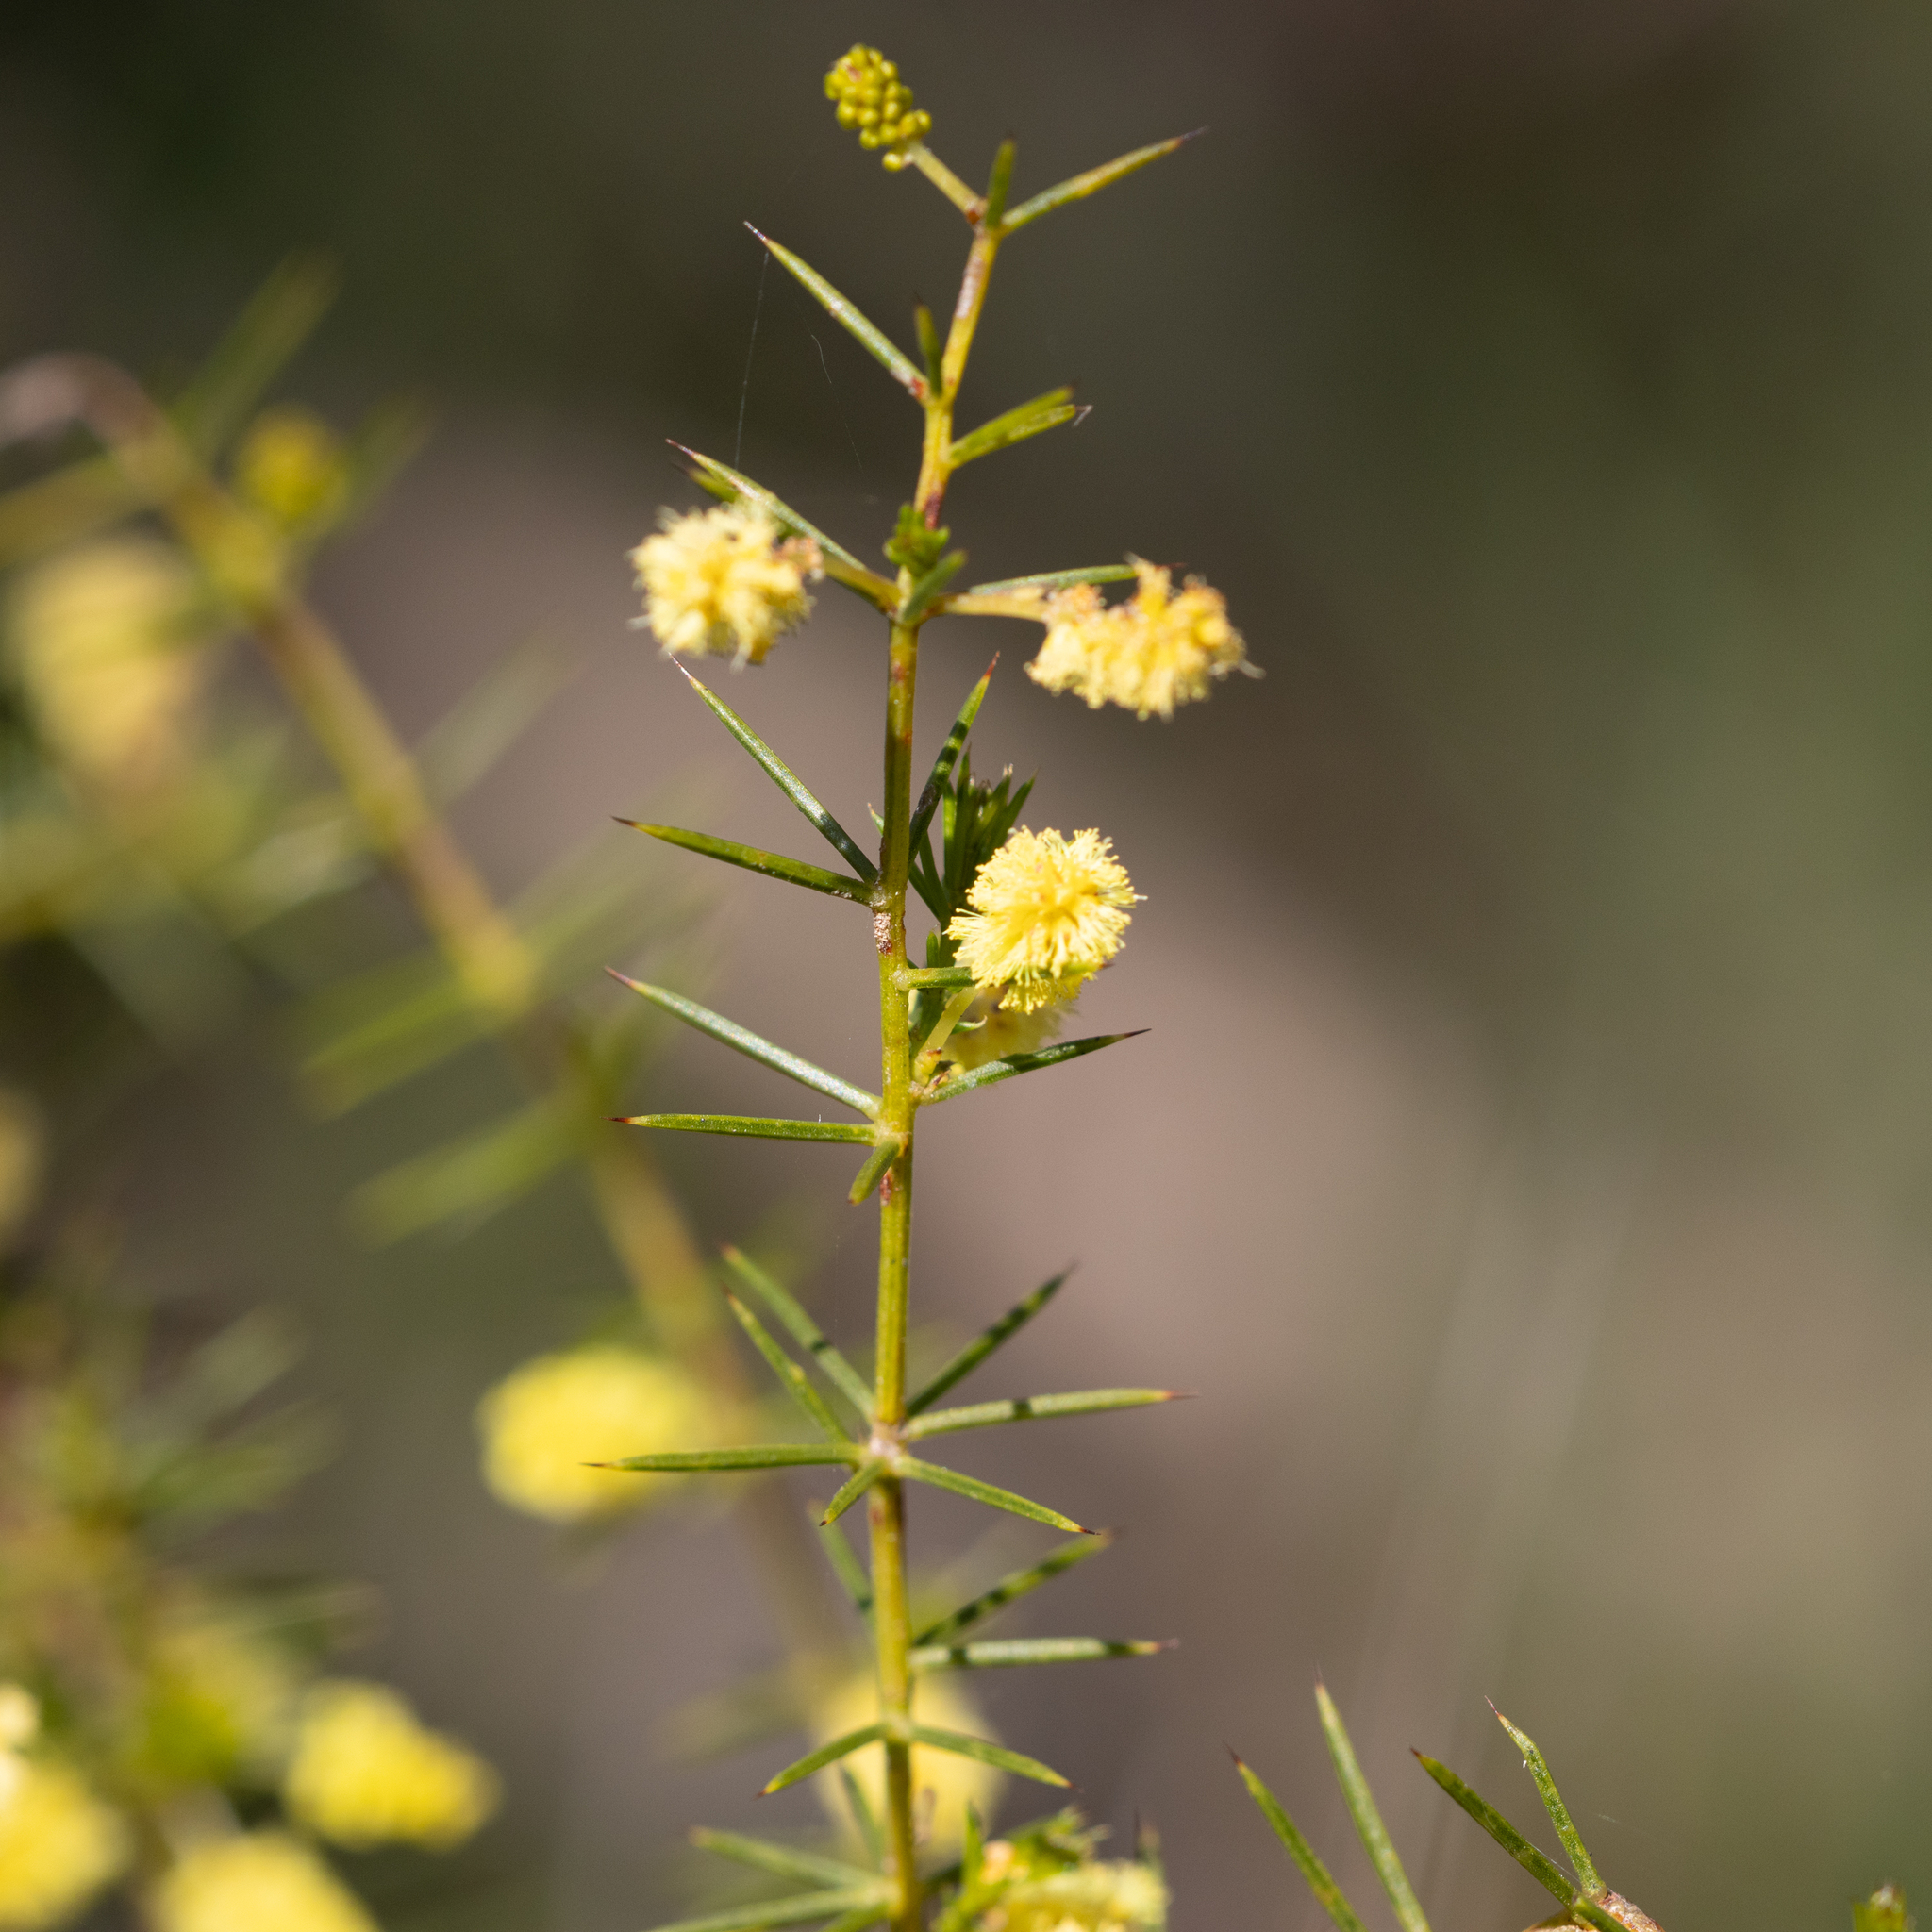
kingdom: Plantae
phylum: Tracheophyta
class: Magnoliopsida
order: Fabales
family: Fabaceae
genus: Acacia
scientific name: Acacia verticillata
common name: Prickly moses
